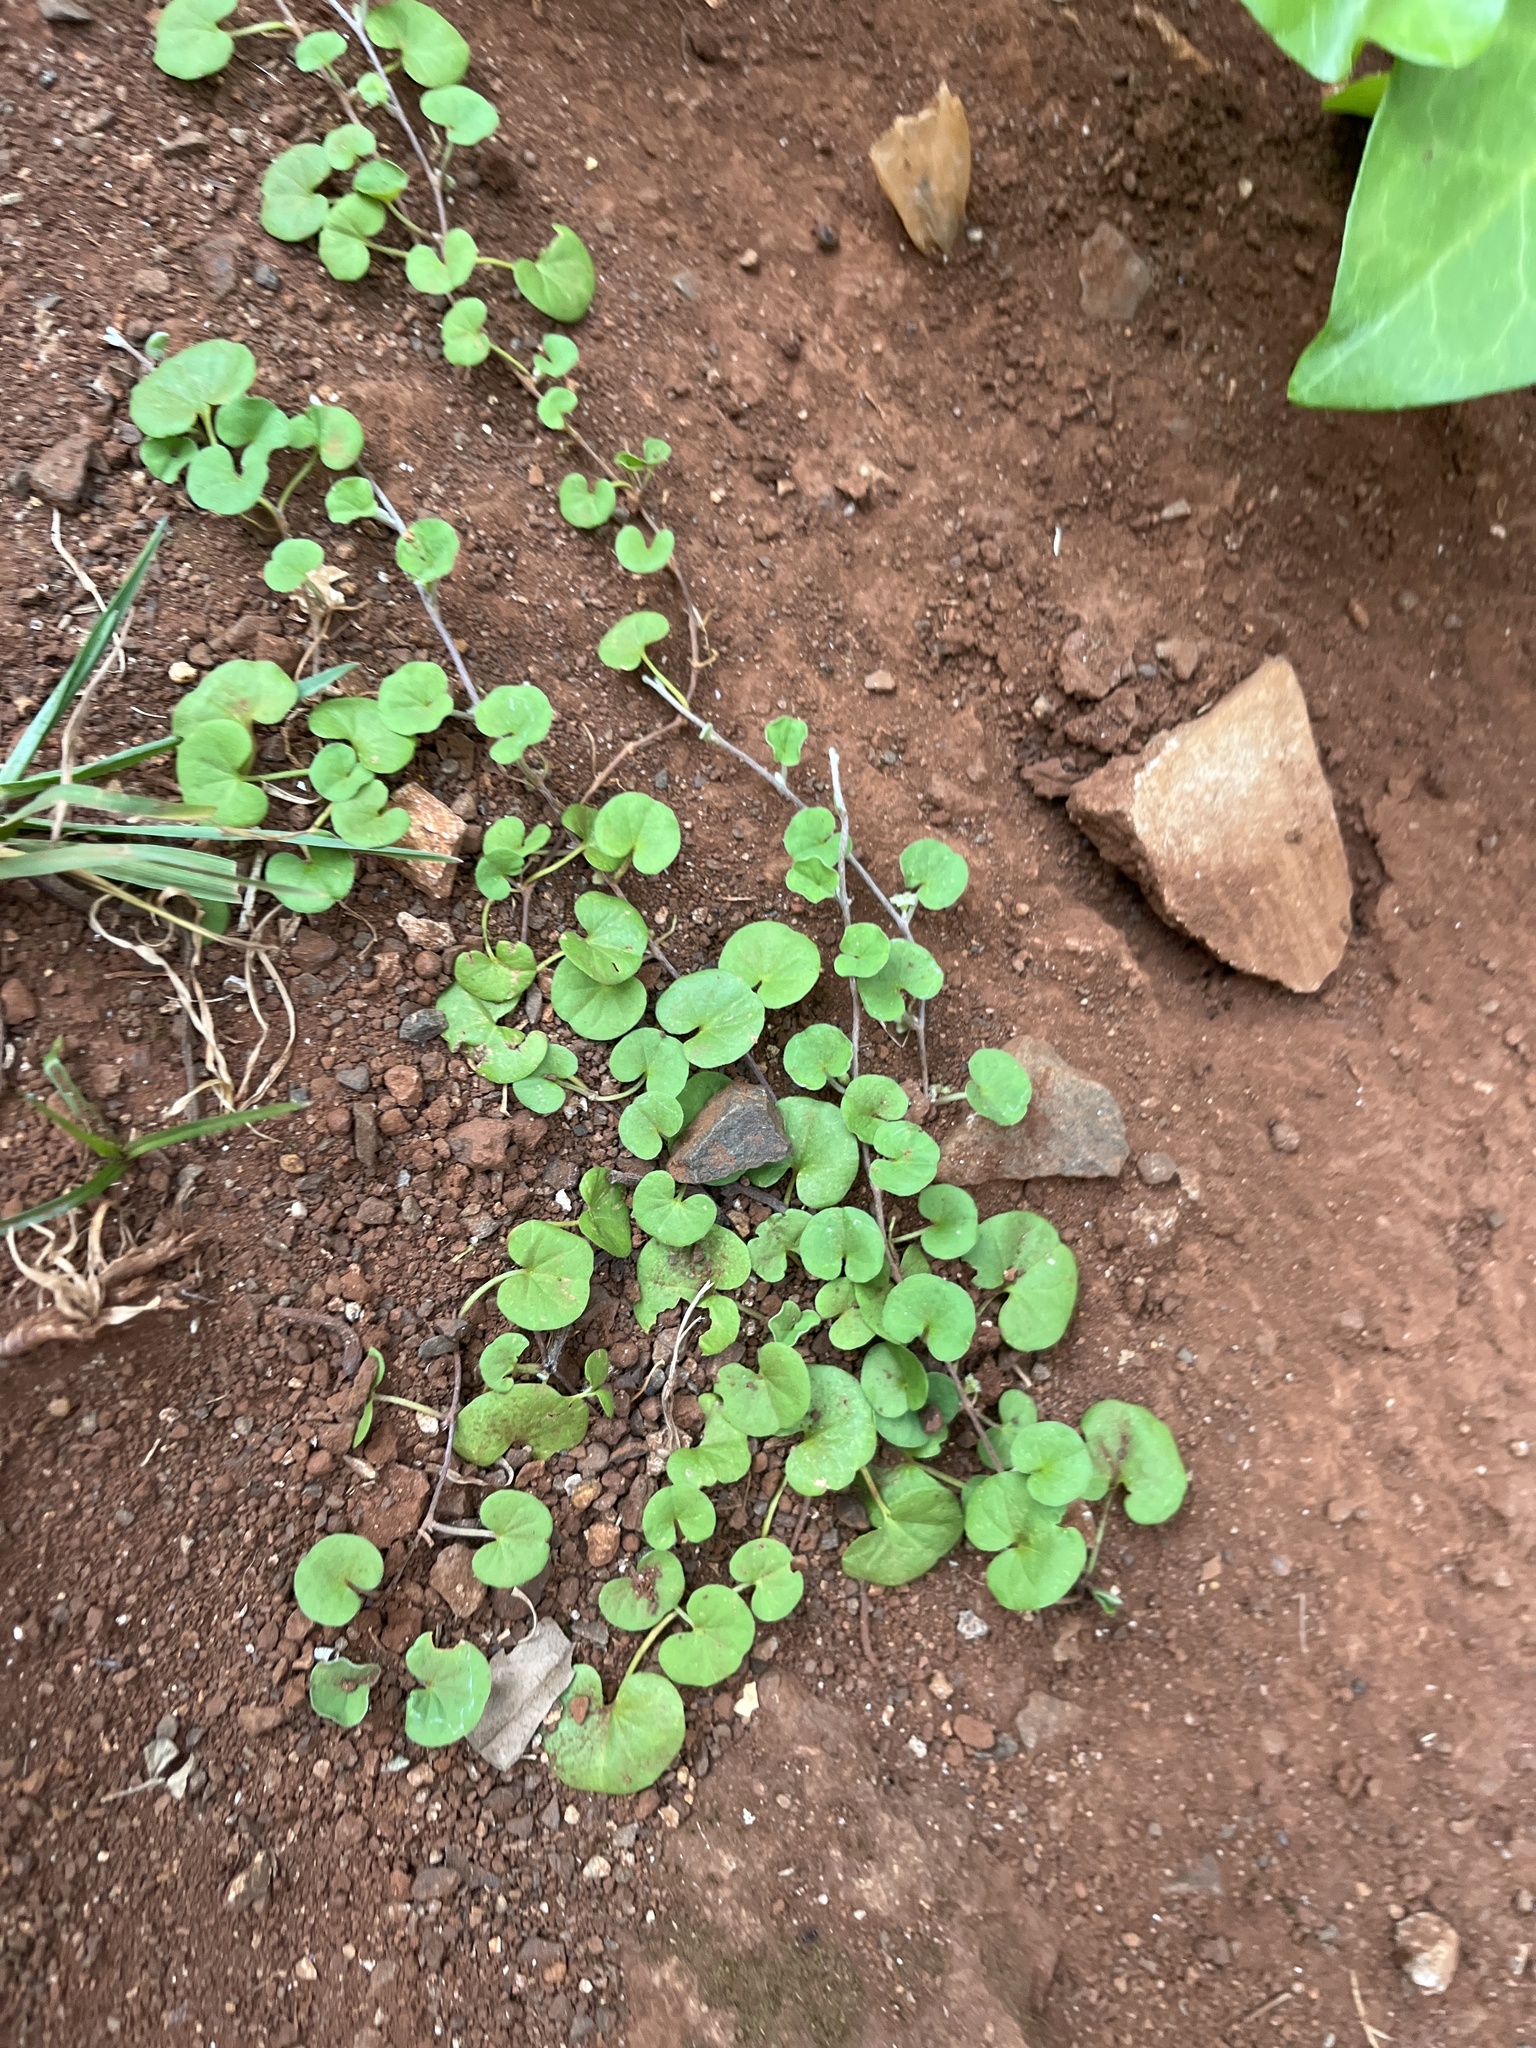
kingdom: Plantae
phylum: Tracheophyta
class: Magnoliopsida
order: Solanales
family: Convolvulaceae
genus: Dichondra
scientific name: Dichondra micrantha
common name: Kidneyweed
